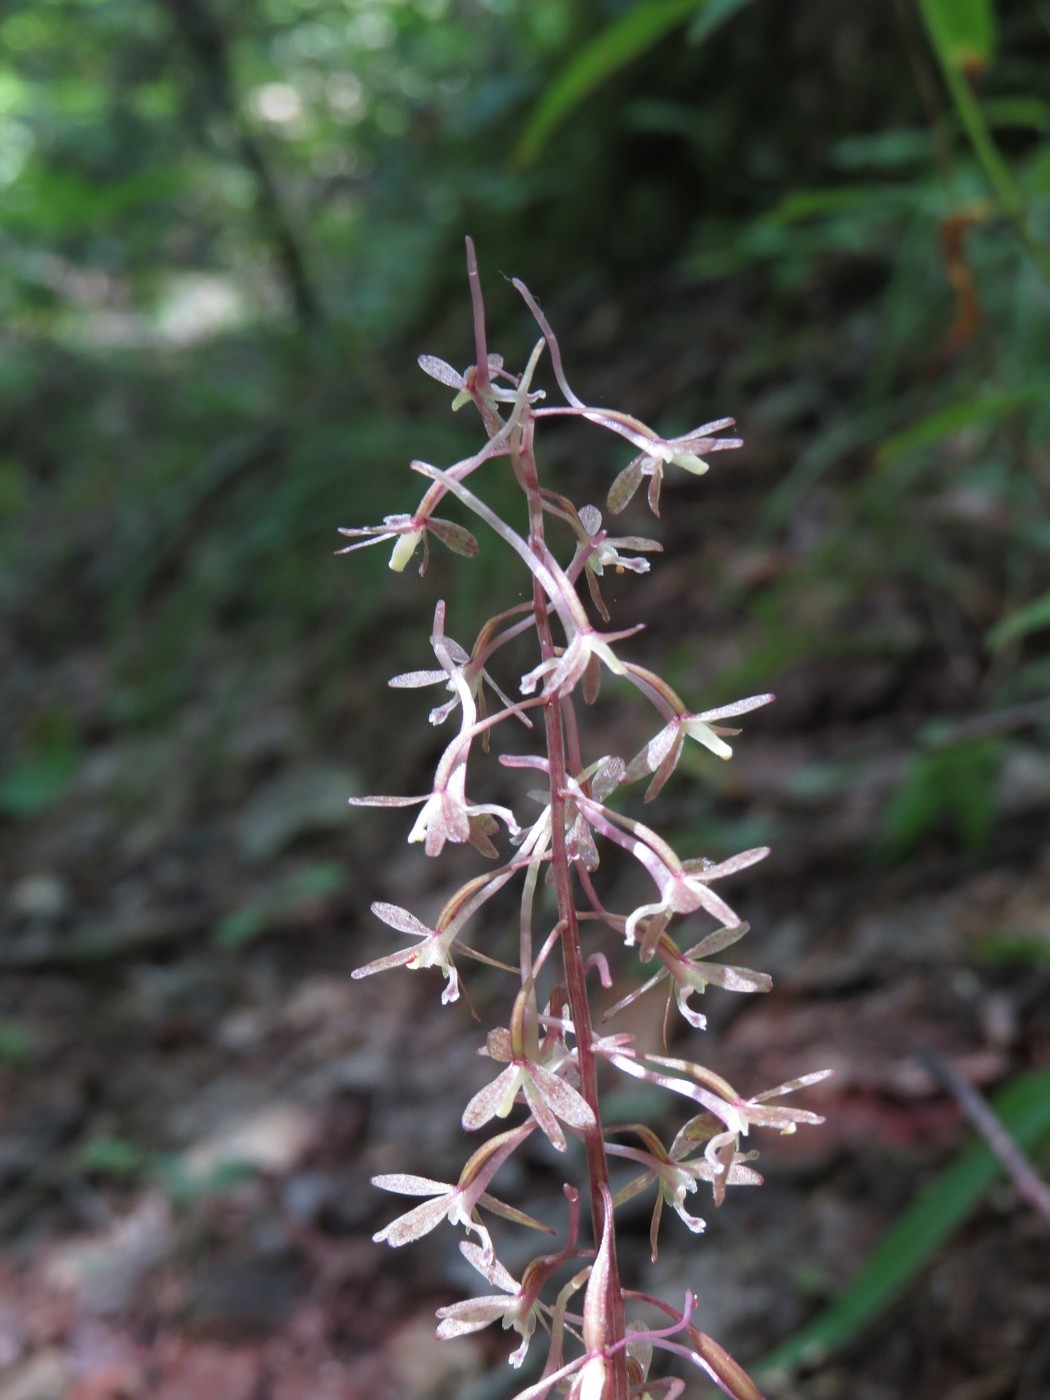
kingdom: Plantae
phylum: Tracheophyta
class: Liliopsida
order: Asparagales
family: Orchidaceae
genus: Tipularia
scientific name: Tipularia discolor
